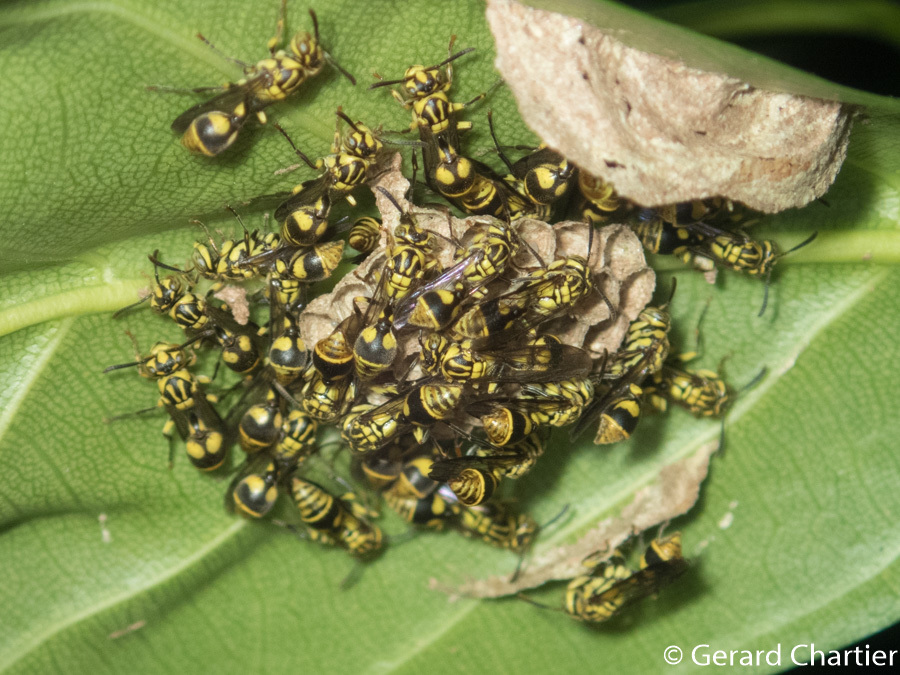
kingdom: Animalia
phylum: Arthropoda
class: Insecta
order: Hymenoptera
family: Vespidae
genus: Ropalidia
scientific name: Ropalidia ornaticeps
